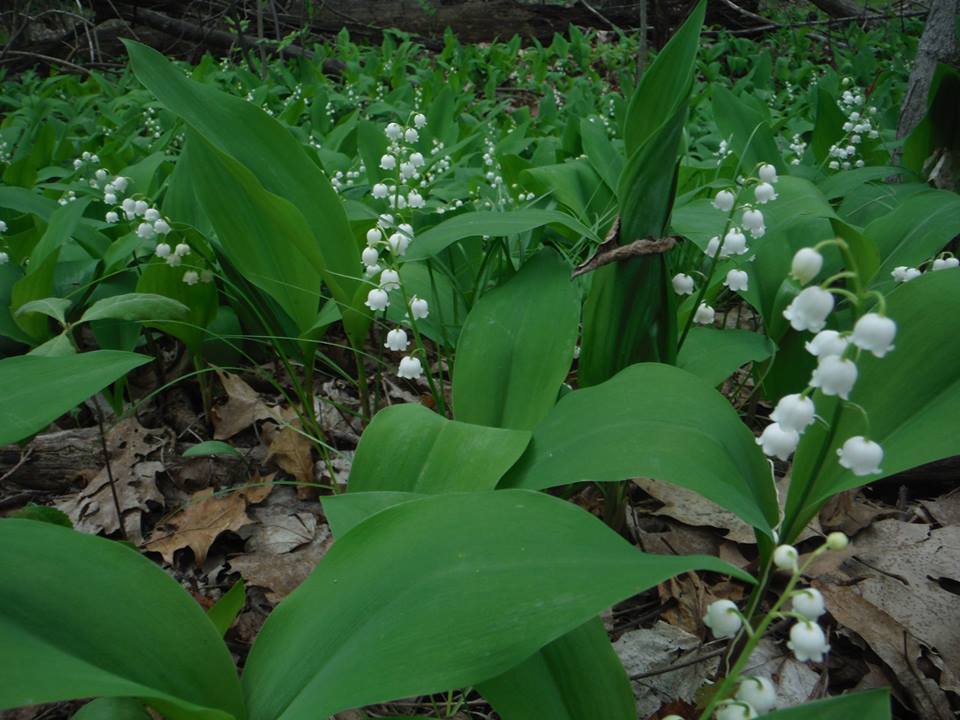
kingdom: Plantae
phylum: Tracheophyta
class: Liliopsida
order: Asparagales
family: Asparagaceae
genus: Convallaria
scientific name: Convallaria majalis
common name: Lily-of-the-valley
